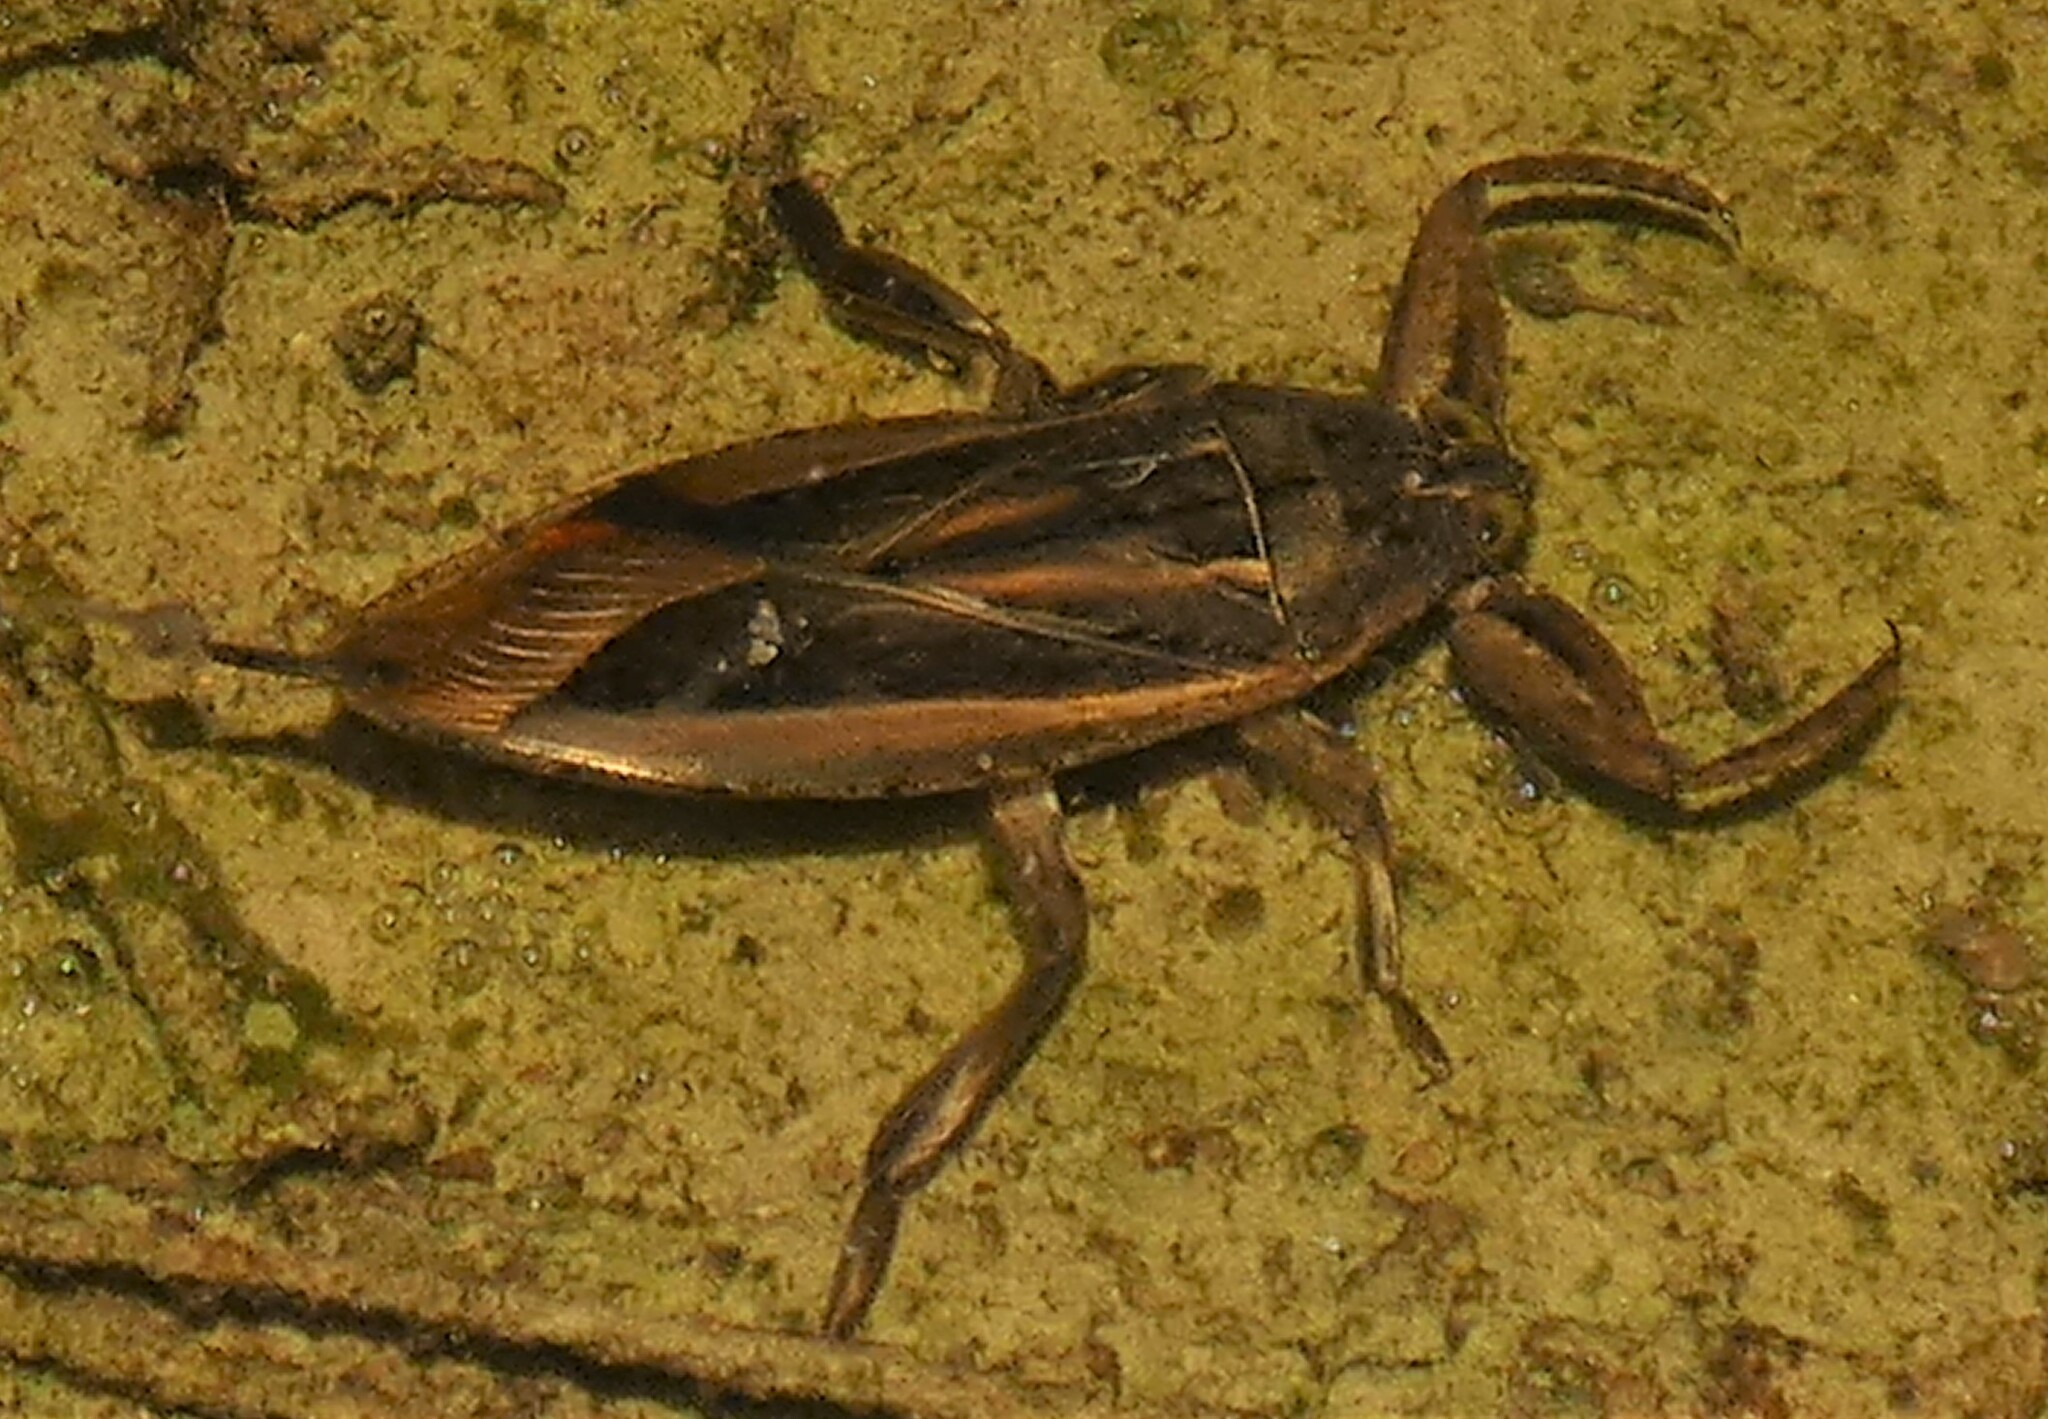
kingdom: Animalia
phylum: Arthropoda
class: Insecta
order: Hemiptera
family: Belostomatidae
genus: Lethocerus
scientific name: Lethocerus uhleri
